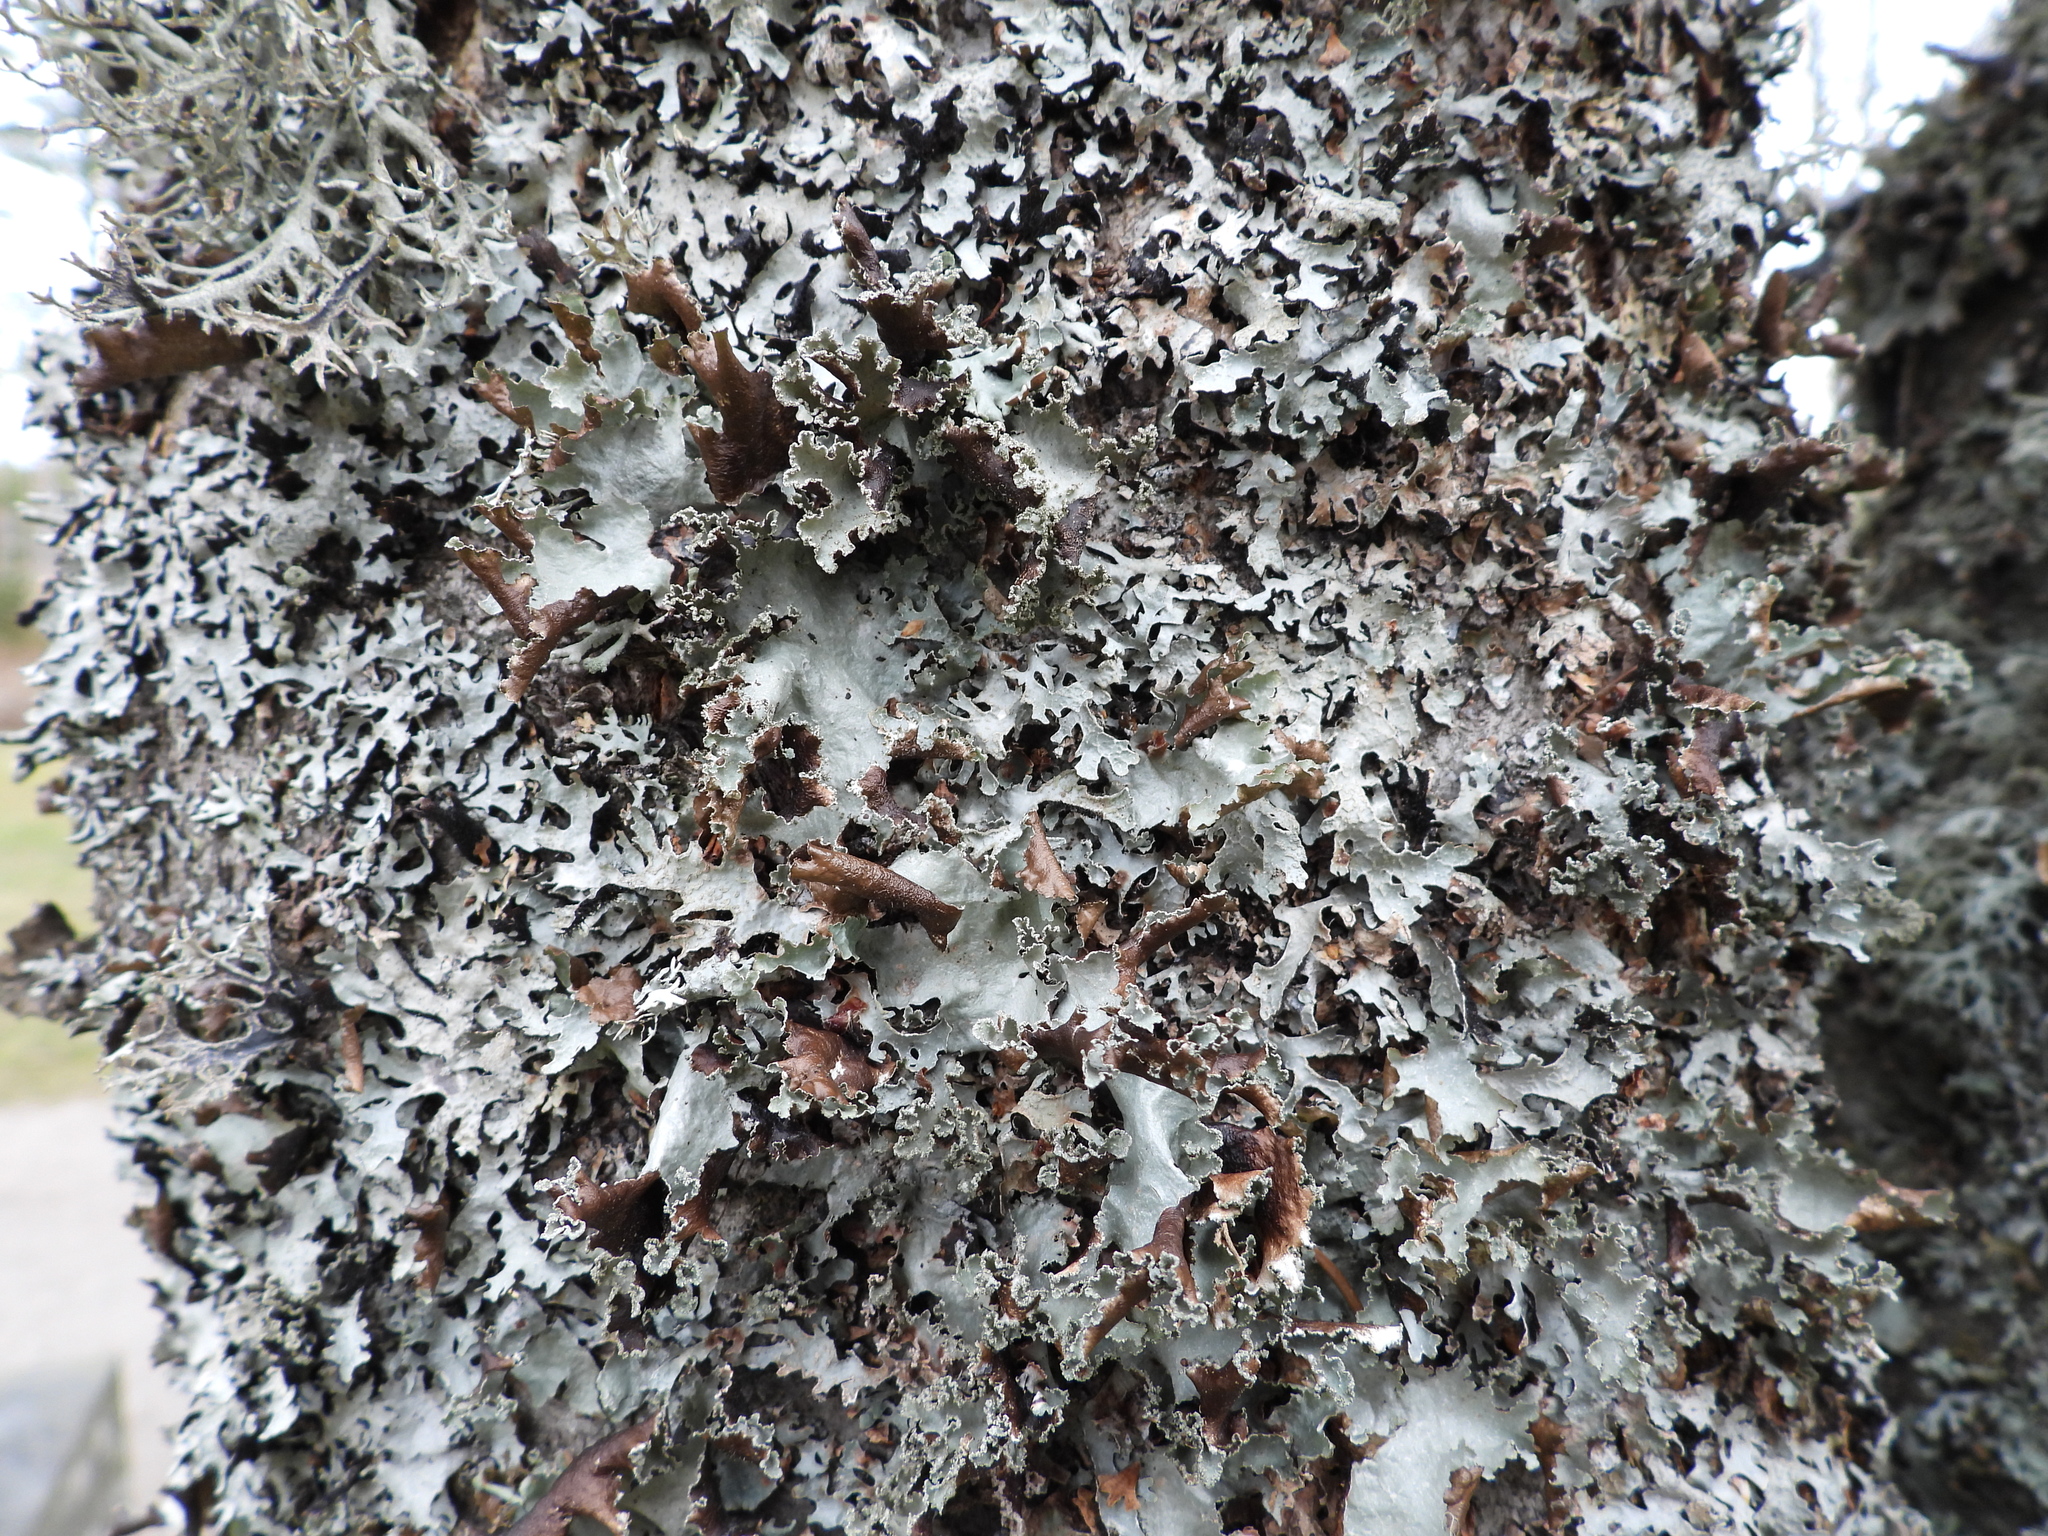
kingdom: Fungi
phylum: Ascomycota
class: Lecanoromycetes
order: Lecanorales
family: Parmeliaceae
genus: Platismatia
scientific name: Platismatia glauca
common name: Varied rag lichen
